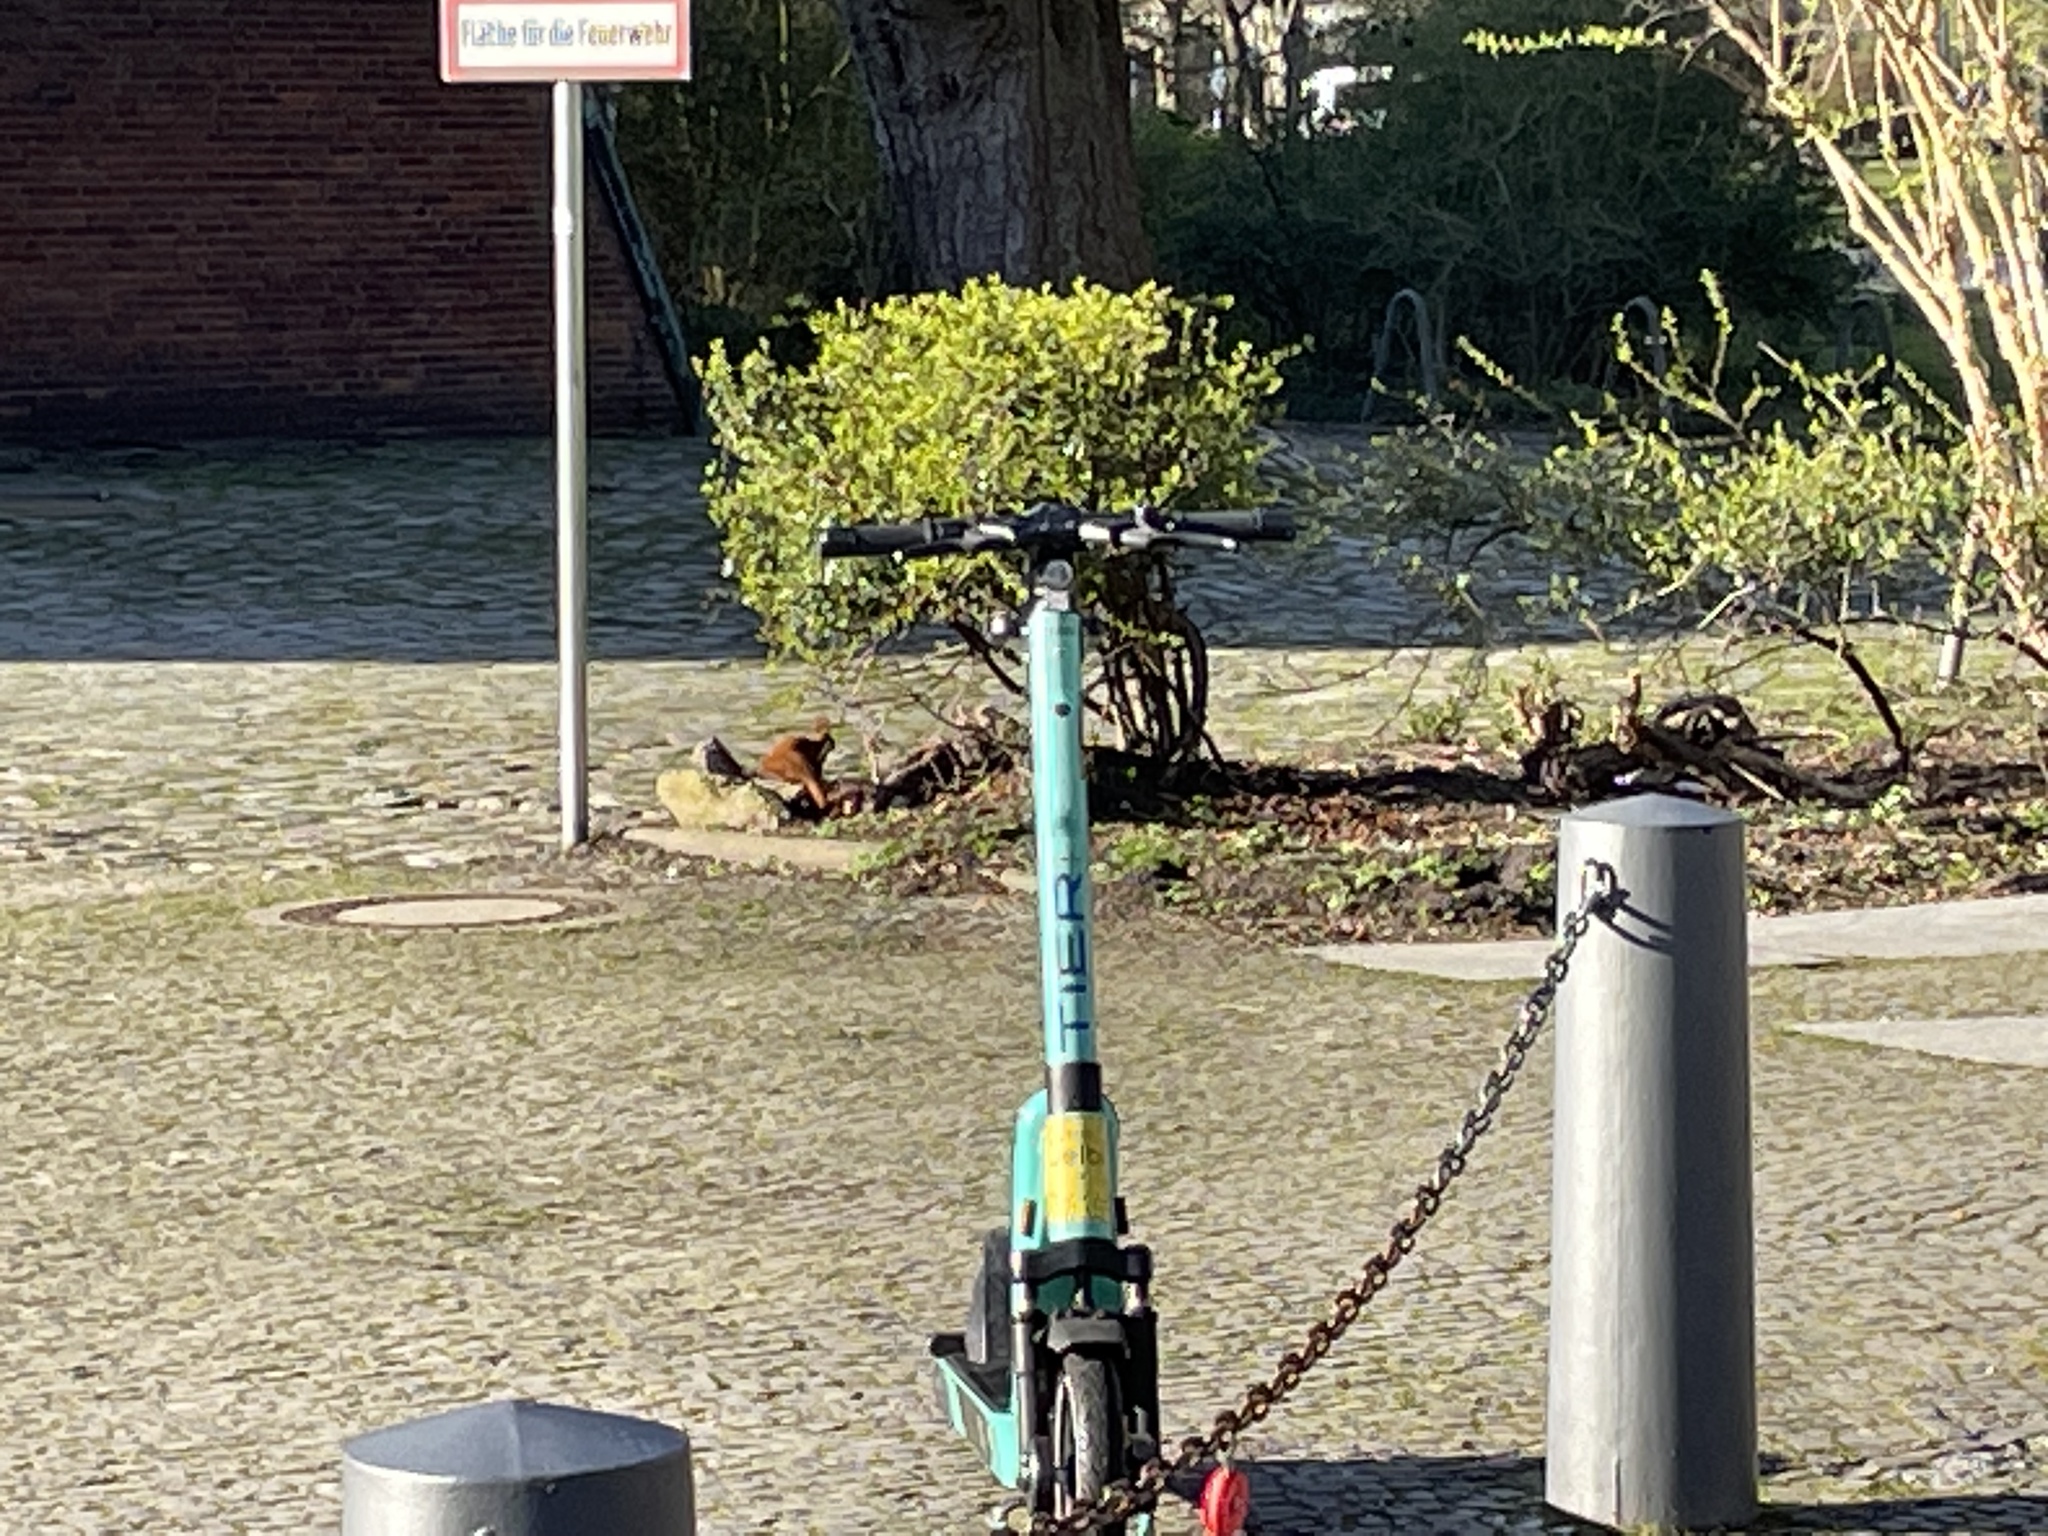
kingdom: Animalia
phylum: Chordata
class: Mammalia
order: Rodentia
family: Sciuridae
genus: Sciurus
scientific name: Sciurus vulgaris
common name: Eurasian red squirrel
